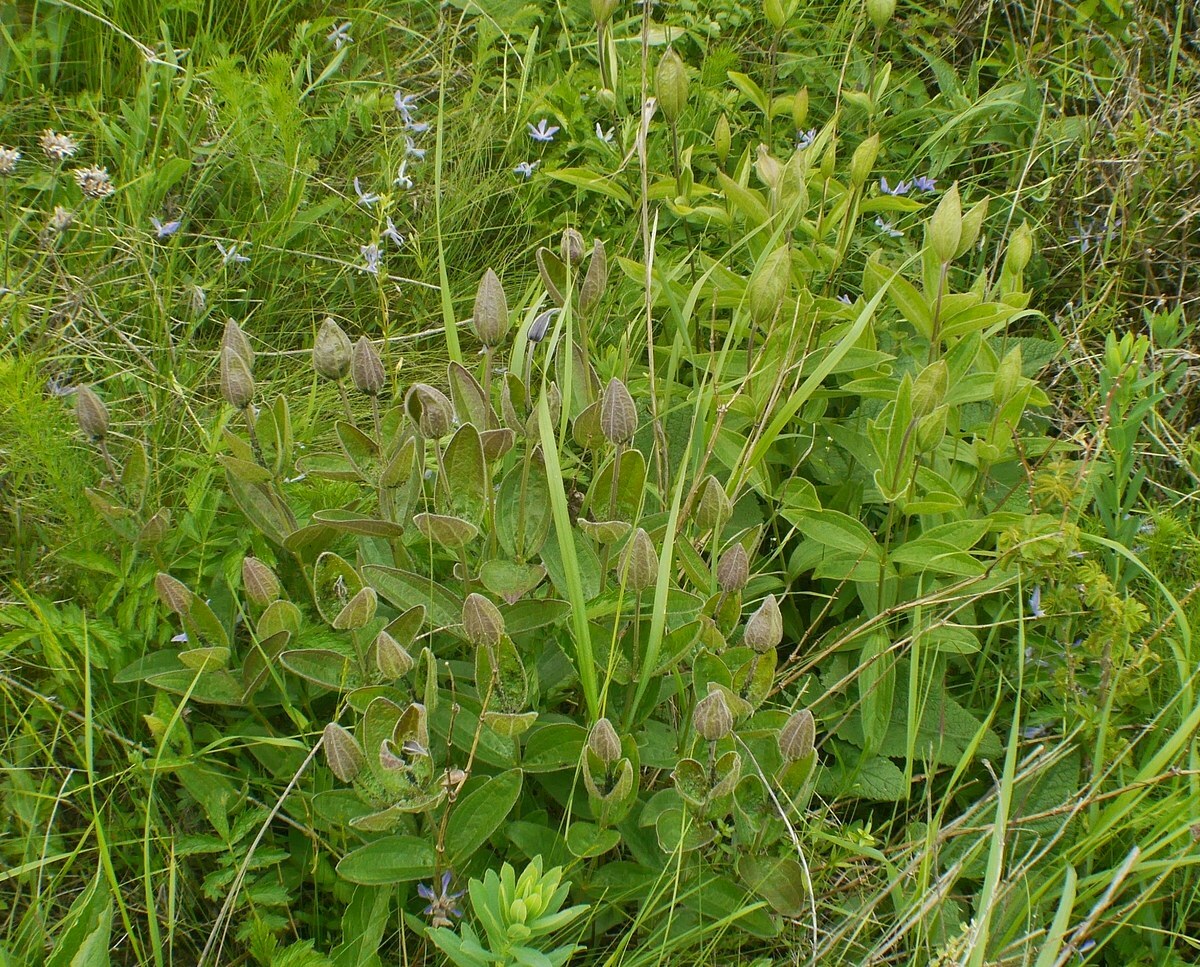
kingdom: Plantae
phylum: Tracheophyta
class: Magnoliopsida
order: Ranunculales
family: Ranunculaceae
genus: Clematis
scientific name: Clematis integrifolia
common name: Solitary clematis
